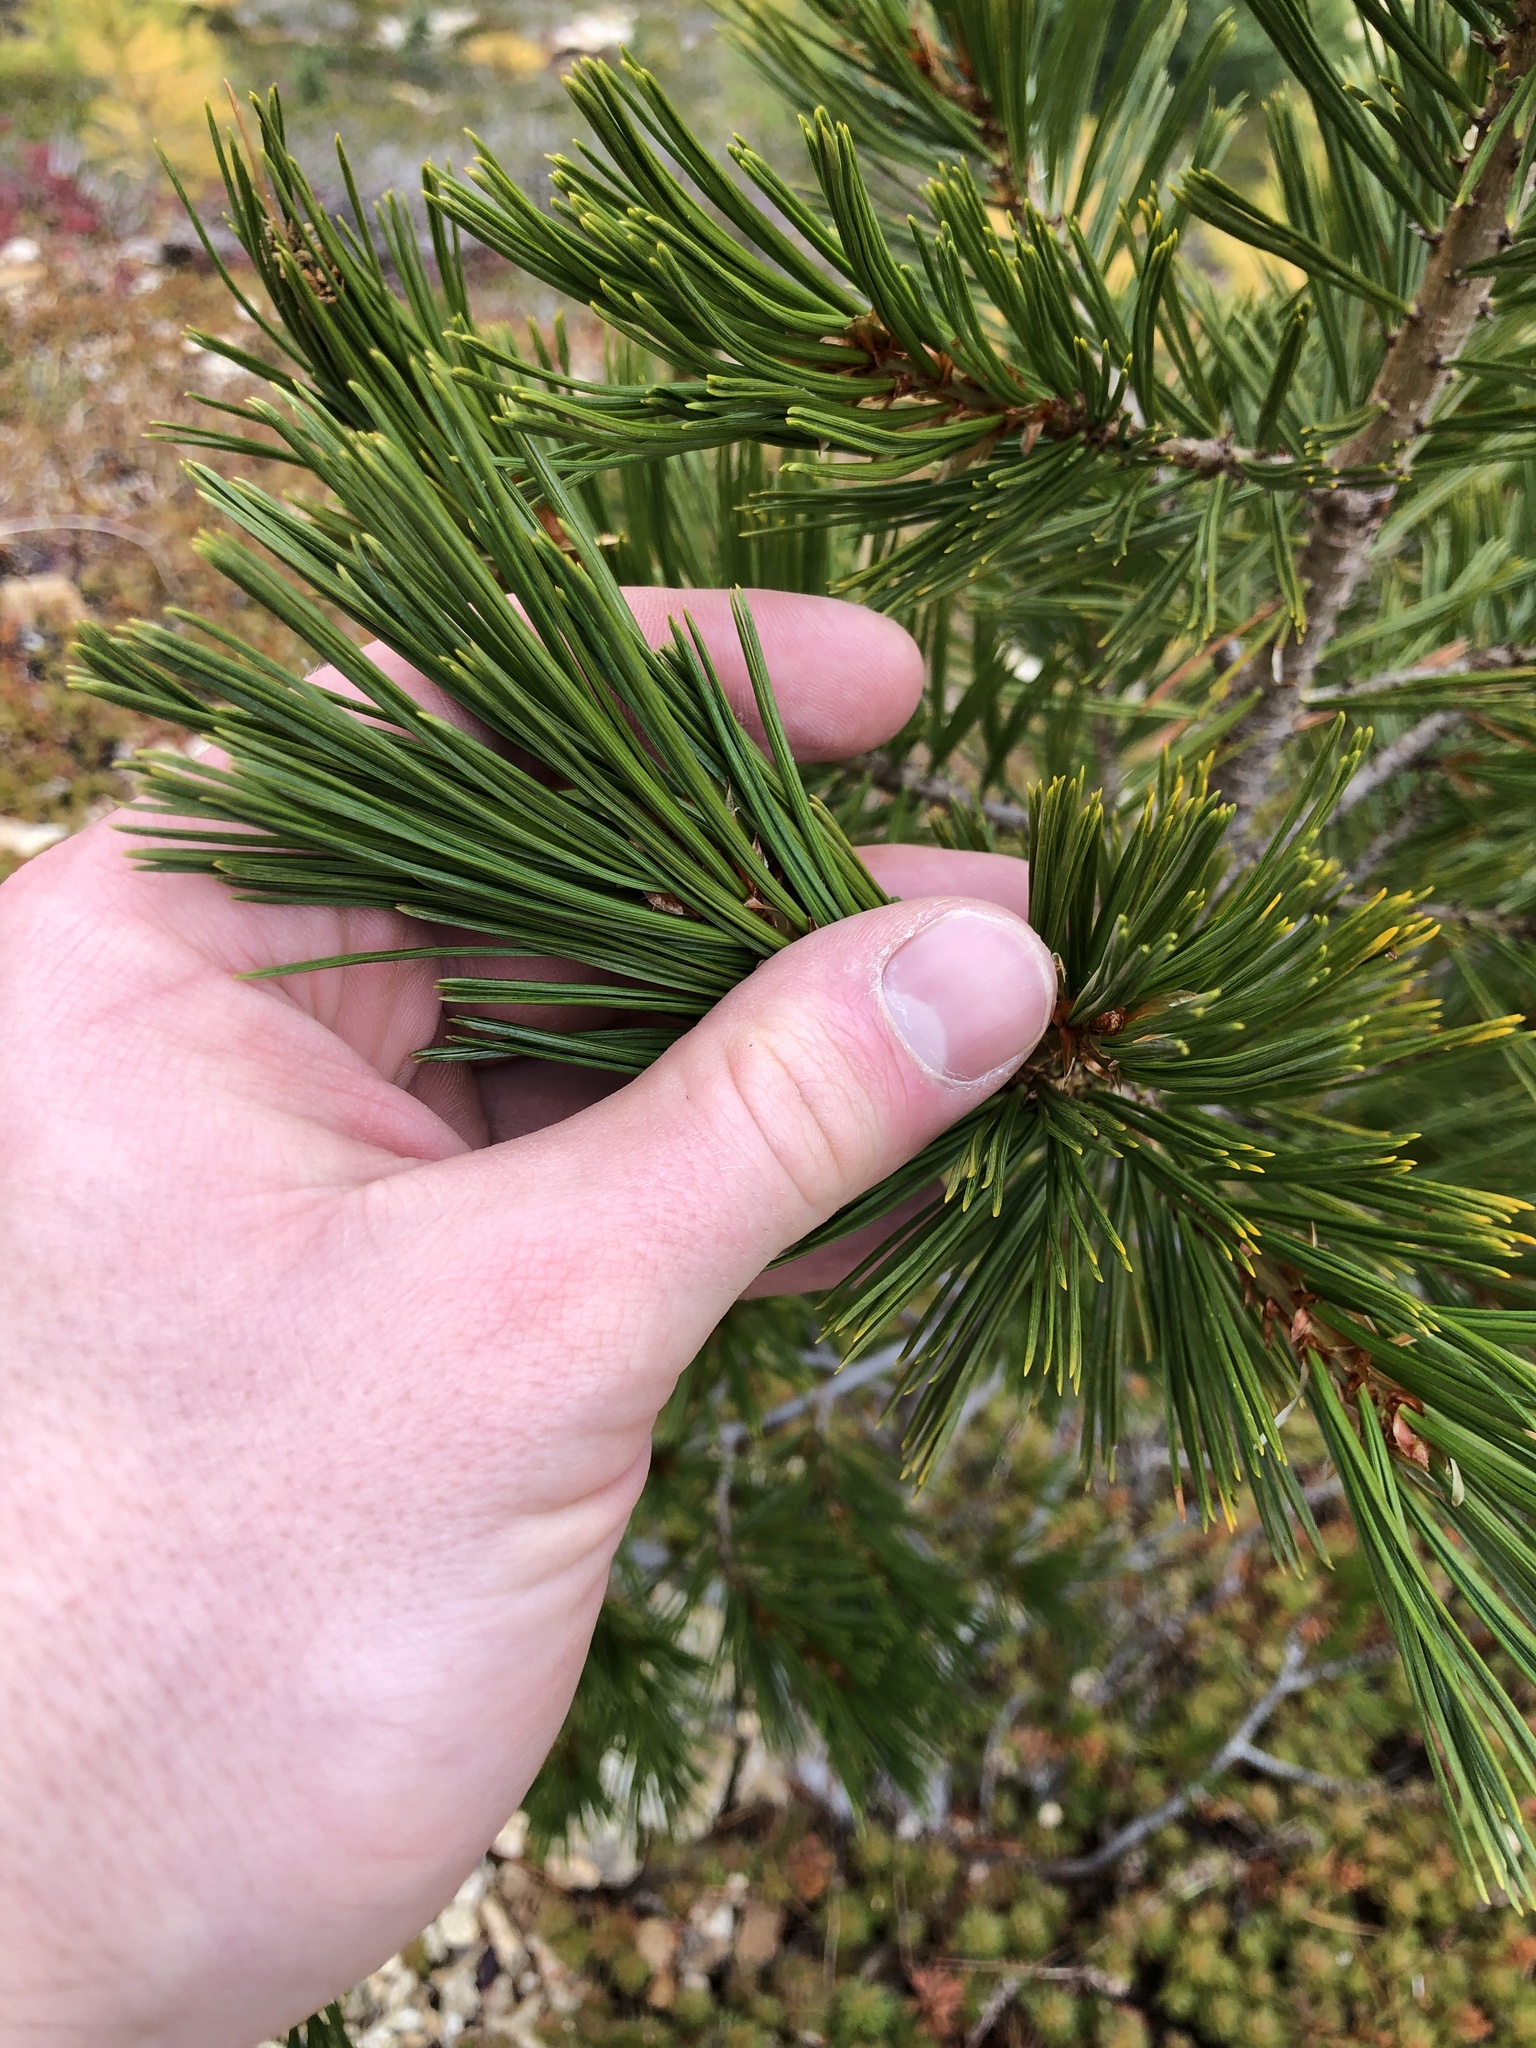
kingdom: Plantae
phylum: Tracheophyta
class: Pinopsida
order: Pinales
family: Pinaceae
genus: Pinus
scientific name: Pinus albicaulis
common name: Whitebark pine
